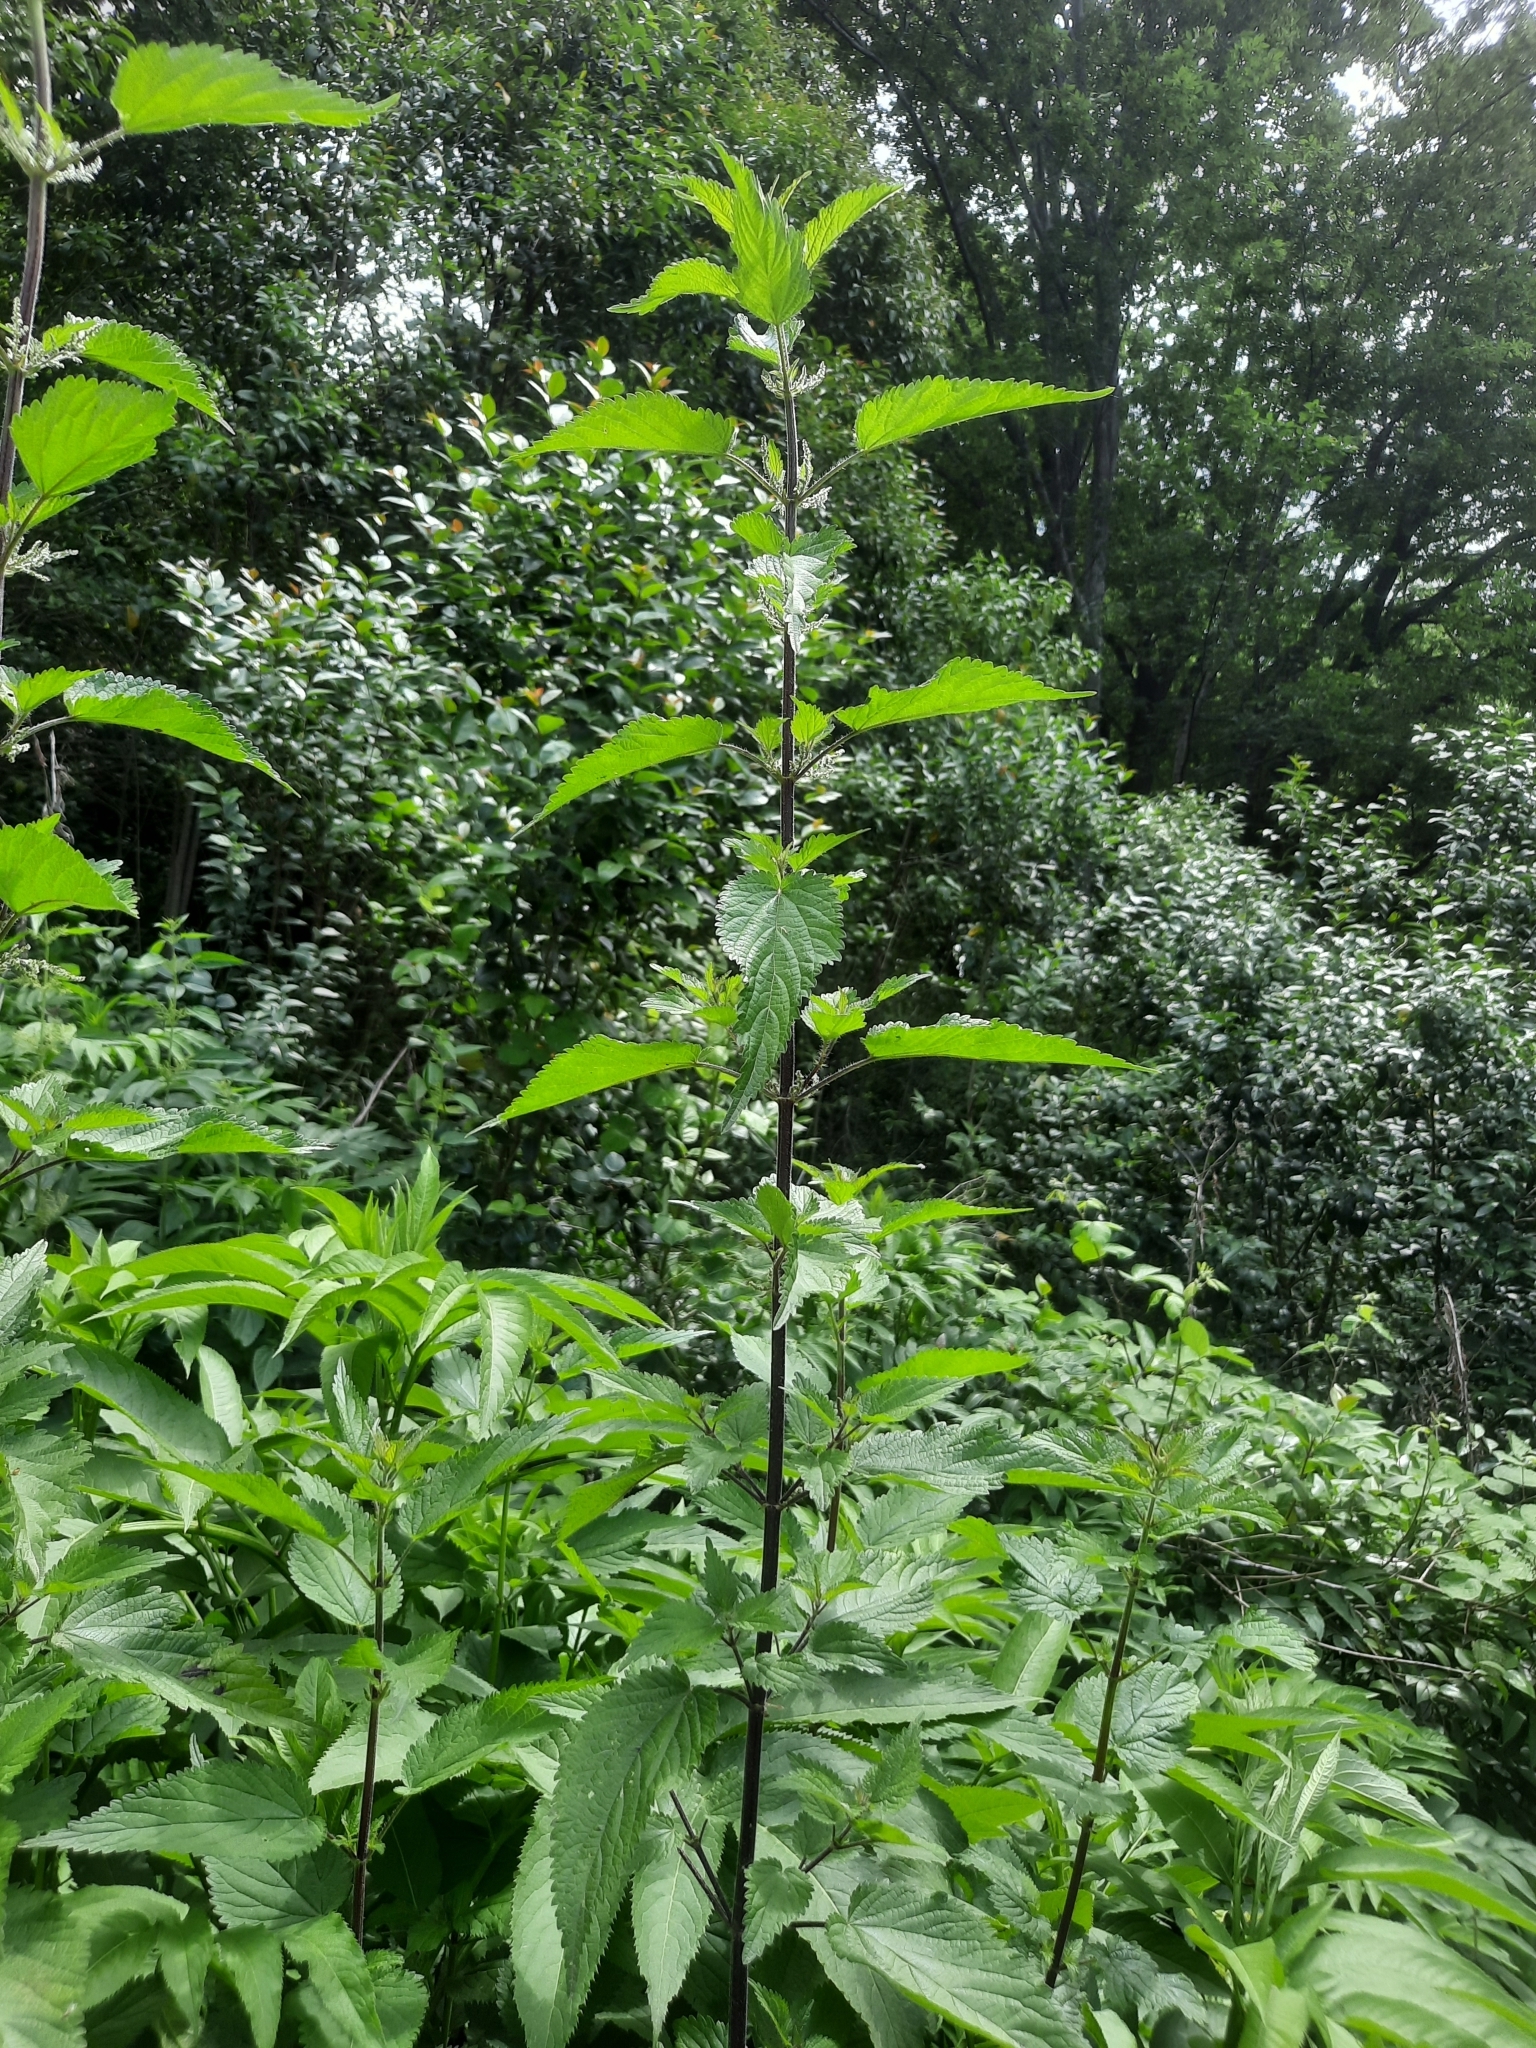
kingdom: Plantae
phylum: Tracheophyta
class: Magnoliopsida
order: Rosales
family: Urticaceae
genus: Urtica
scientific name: Urtica dioica
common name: Common nettle
